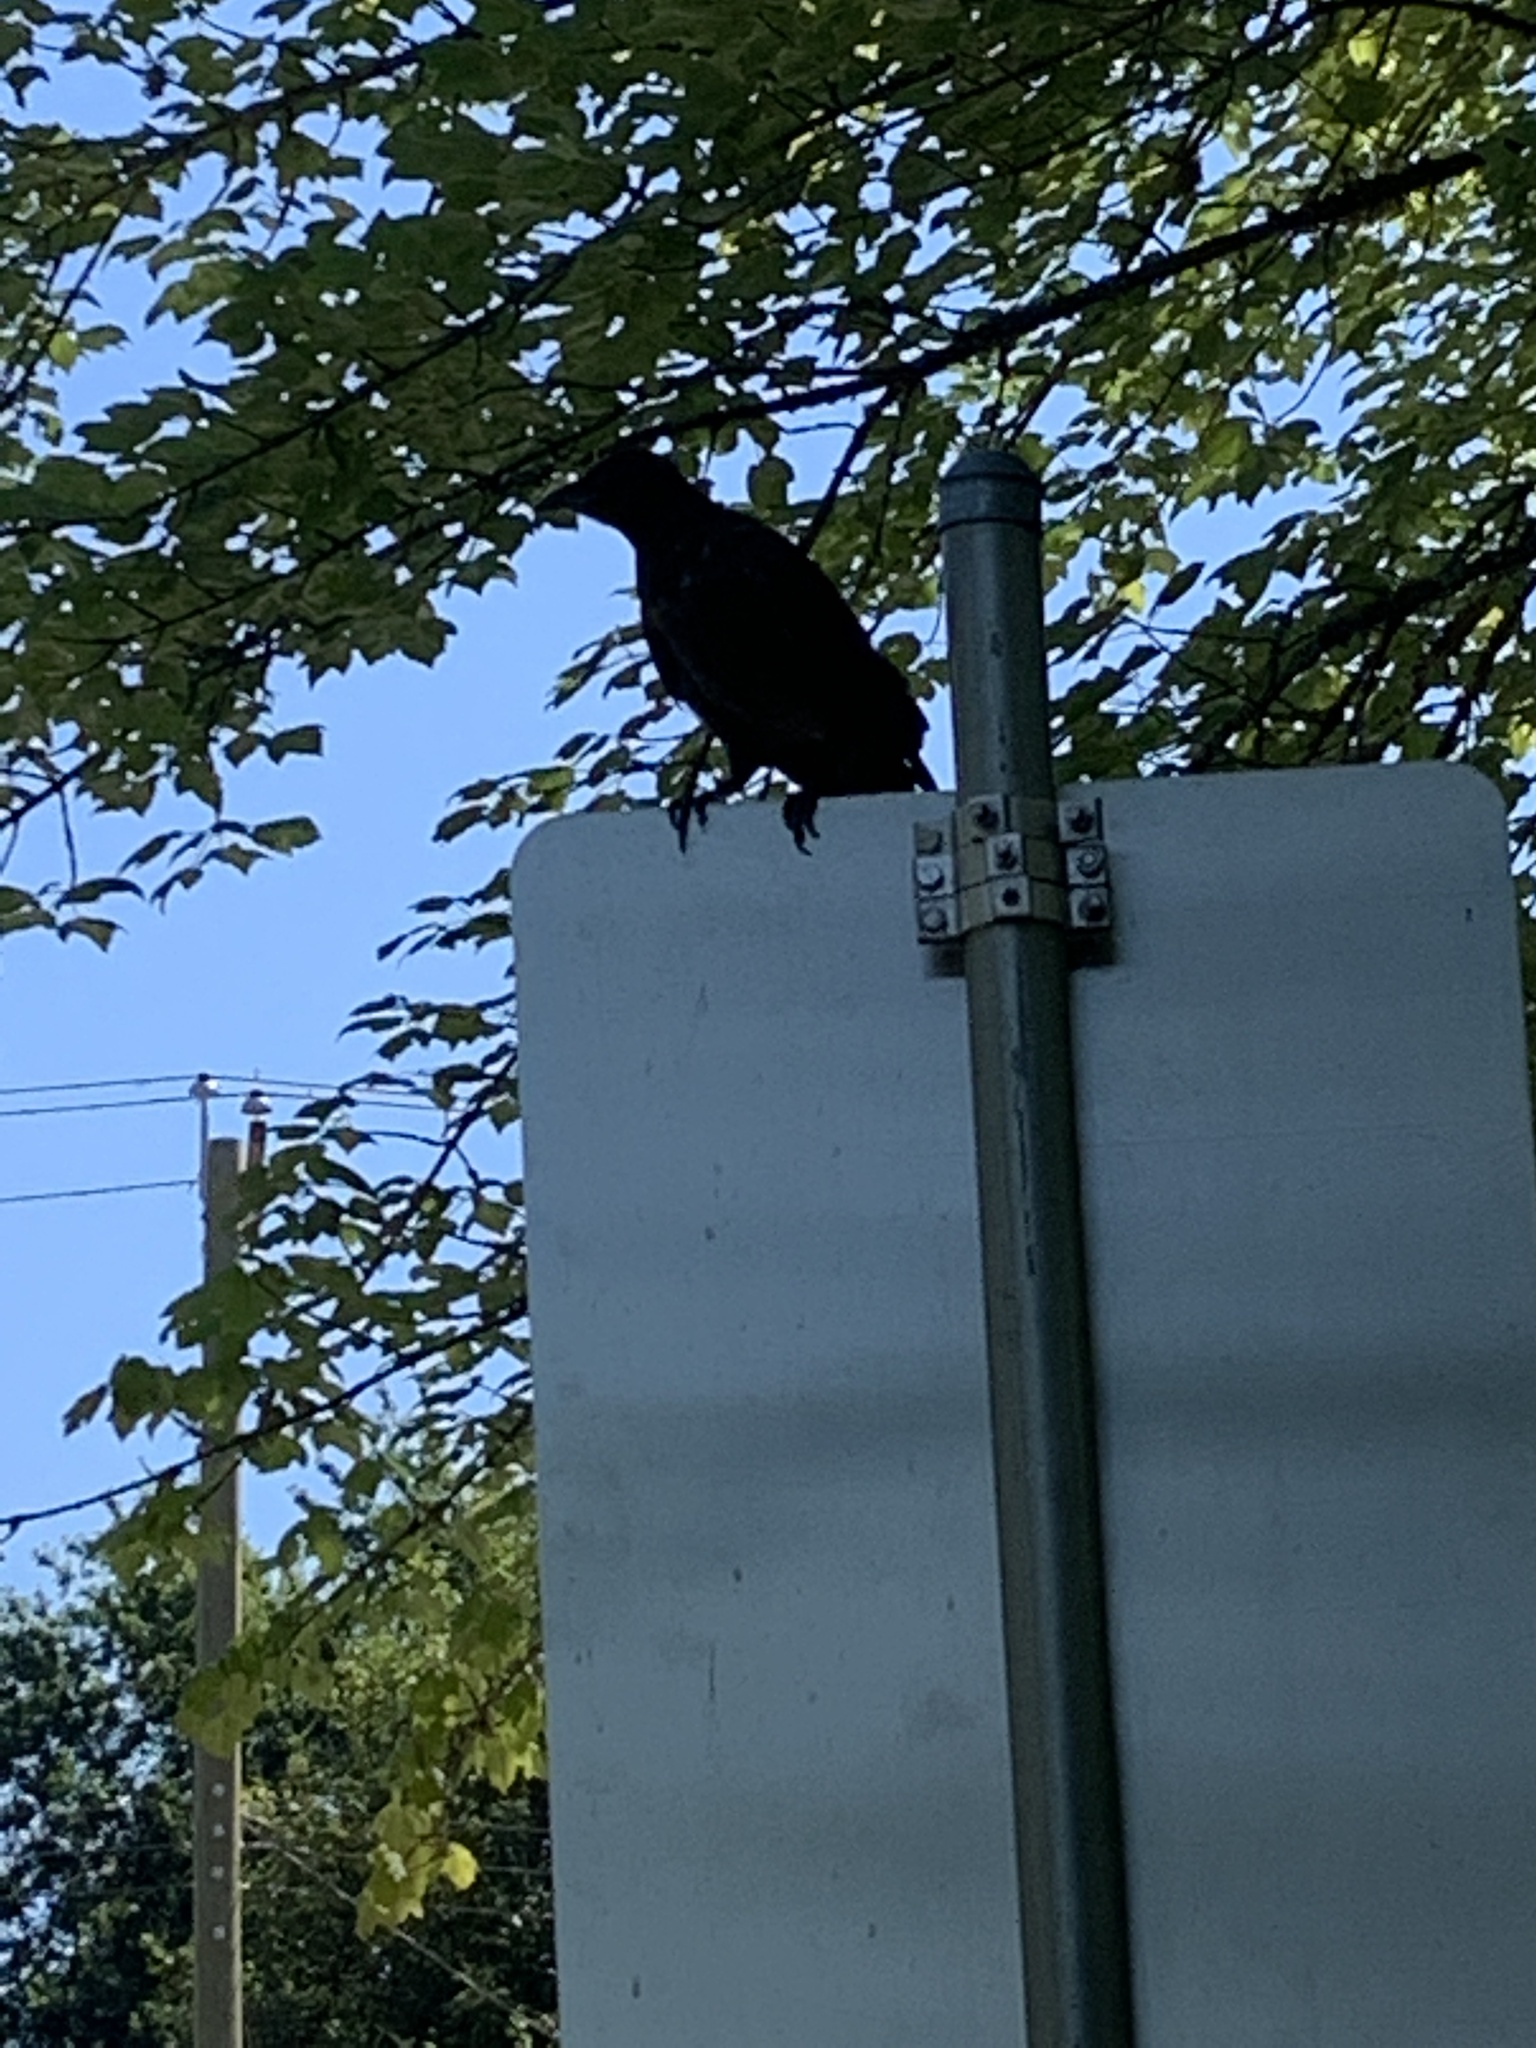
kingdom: Animalia
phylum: Chordata
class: Aves
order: Passeriformes
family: Corvidae
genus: Corvus
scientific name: Corvus brachyrhynchos
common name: American crow
